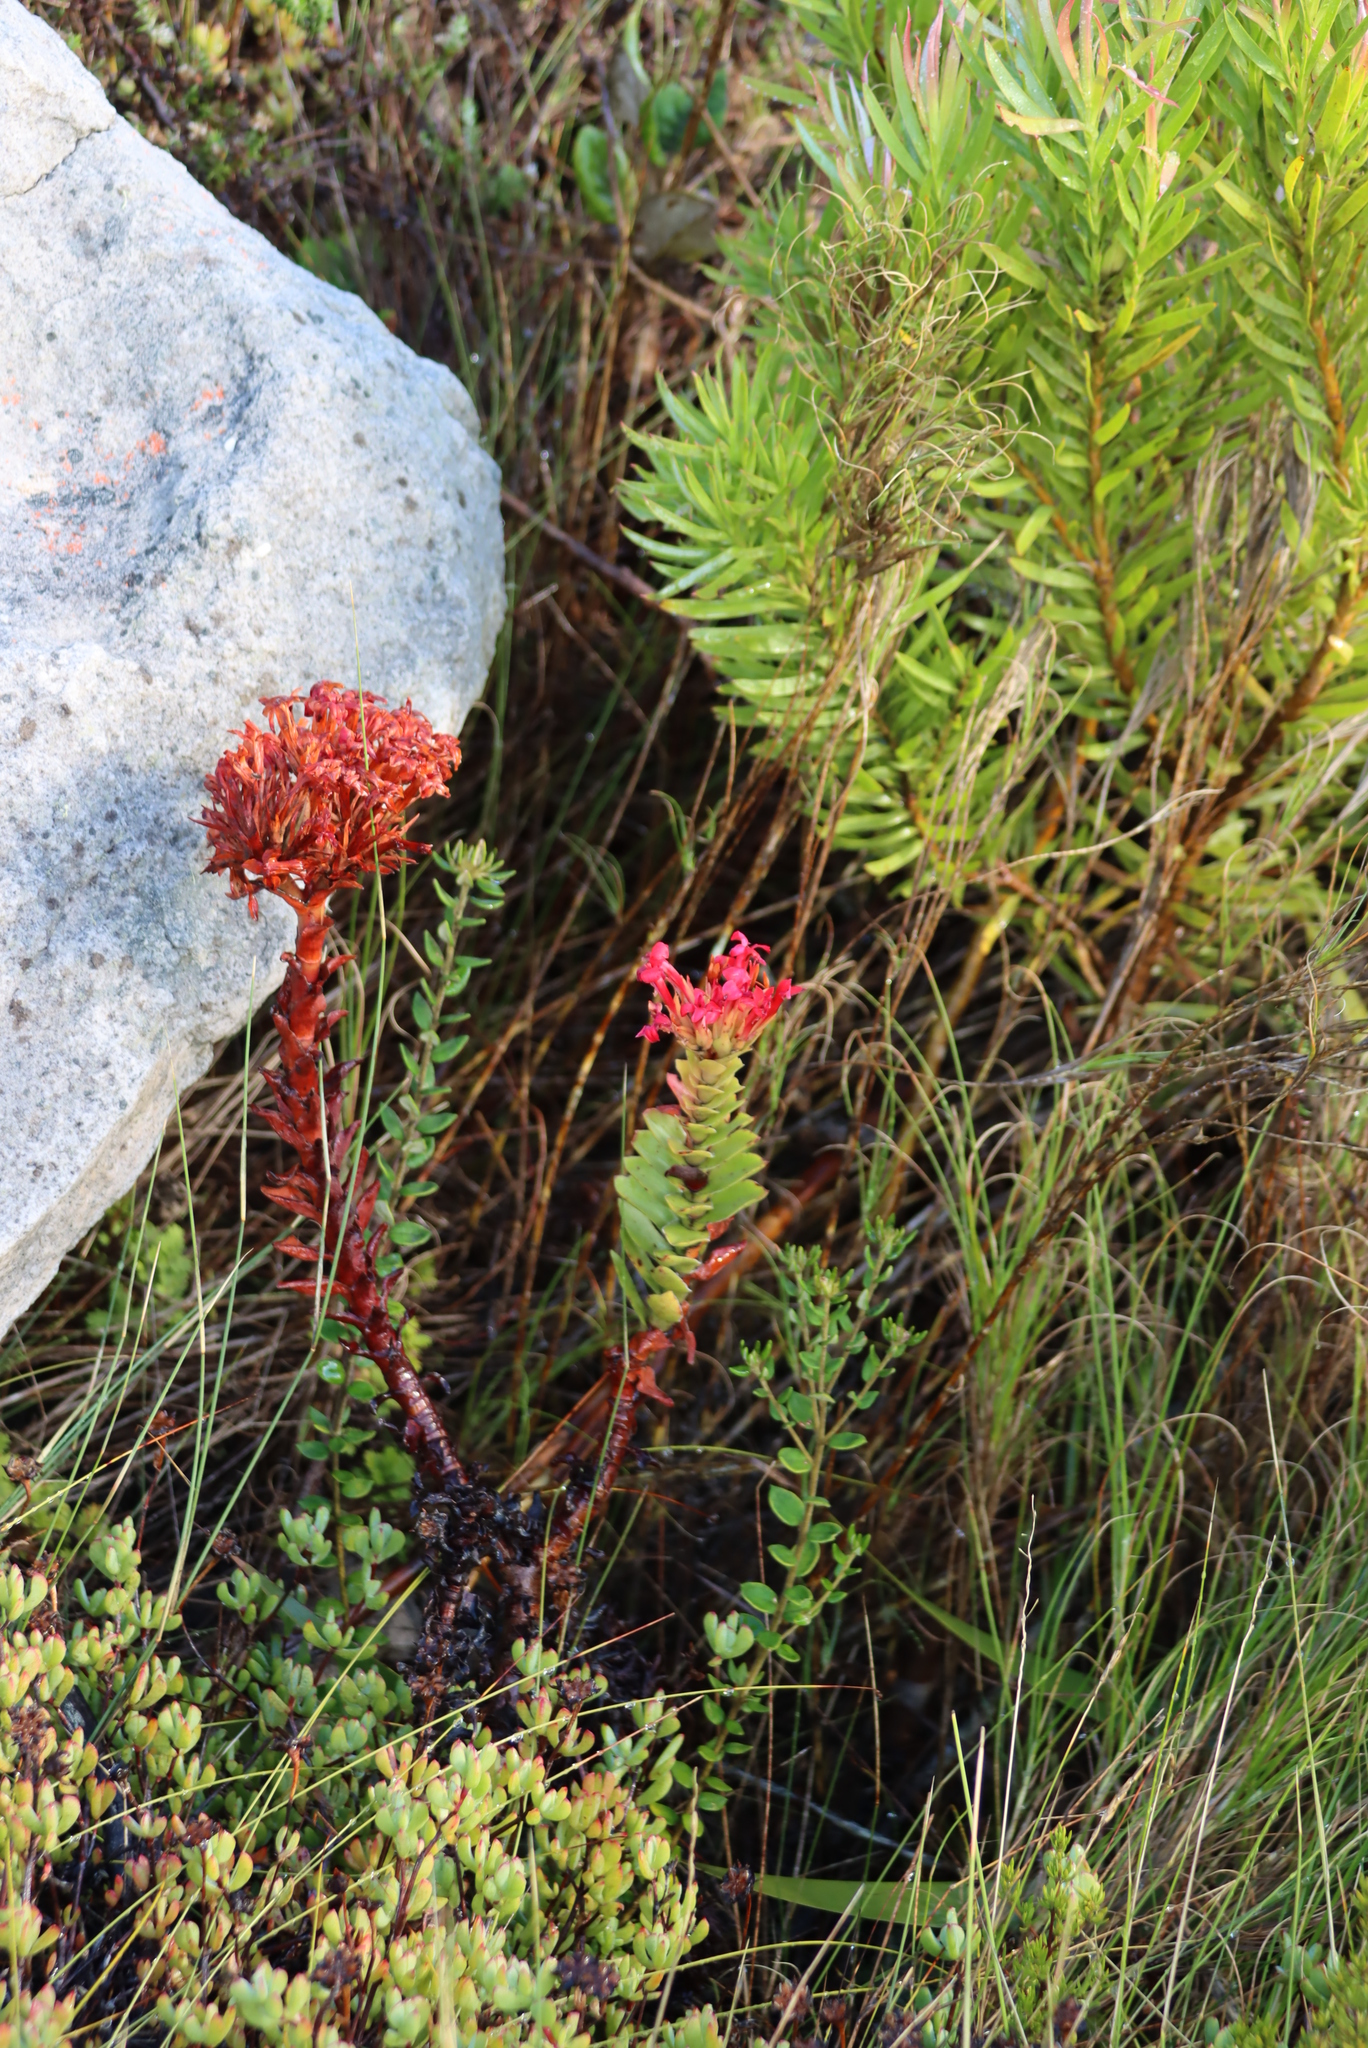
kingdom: Plantae
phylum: Tracheophyta
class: Magnoliopsida
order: Saxifragales
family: Crassulaceae
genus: Crassula
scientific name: Crassula coccinea
